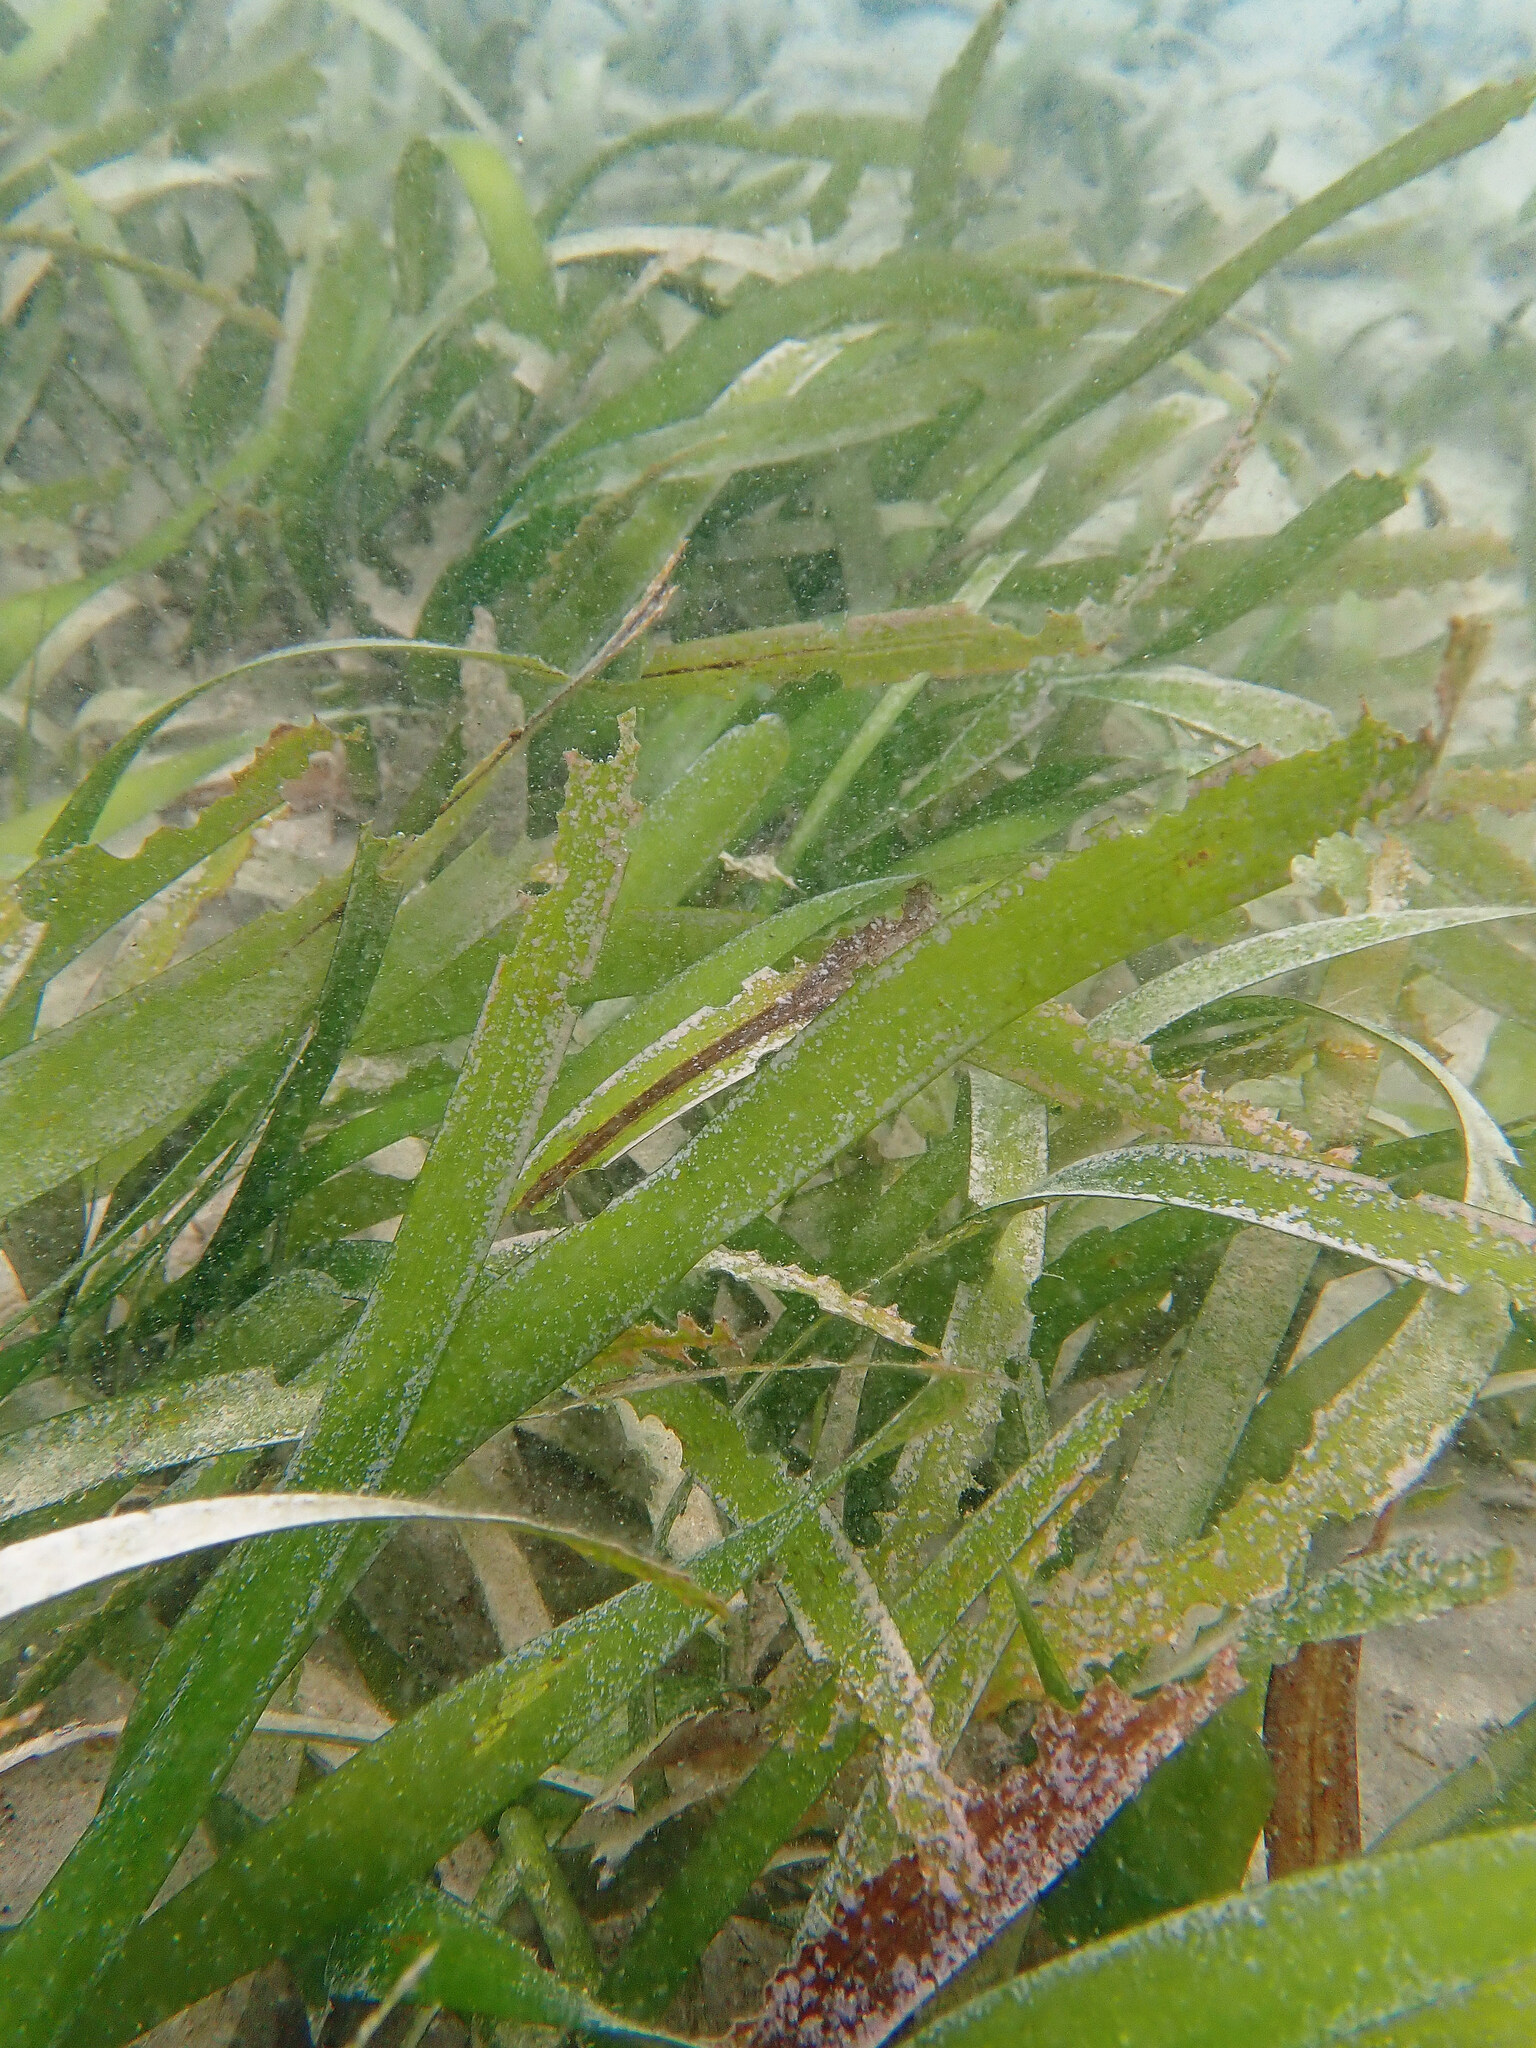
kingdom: Plantae
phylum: Tracheophyta
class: Liliopsida
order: Alismatales
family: Hydrocharitaceae
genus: Thalassia
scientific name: Thalassia testudinum
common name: Species code: tt
